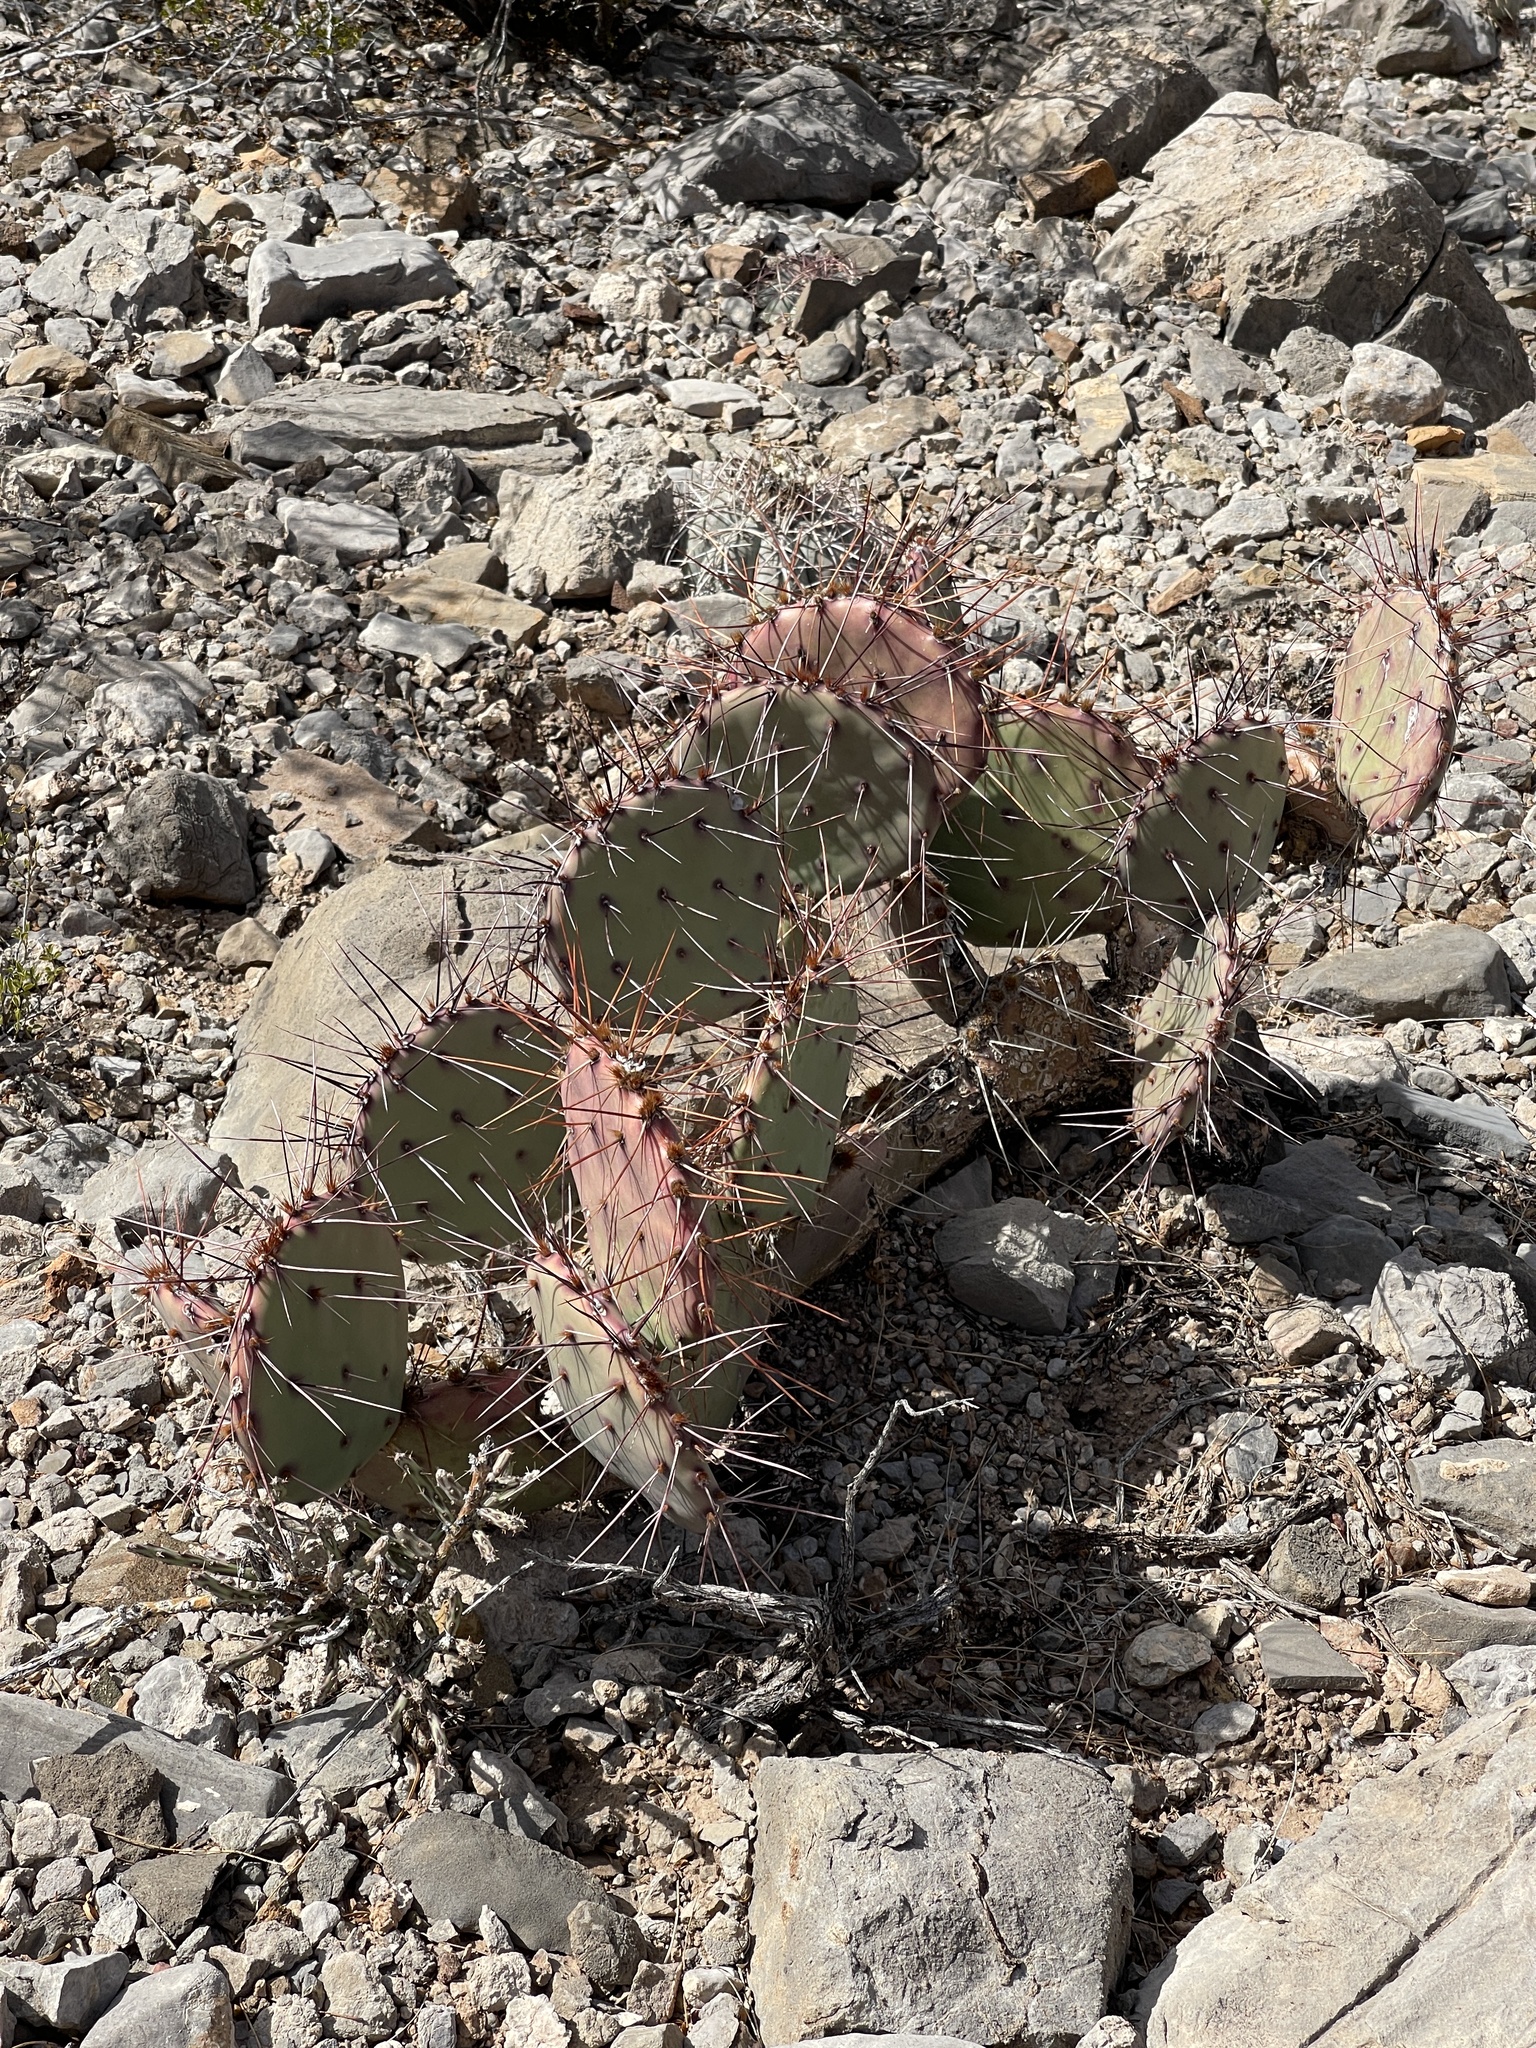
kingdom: Plantae
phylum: Tracheophyta
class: Magnoliopsida
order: Caryophyllales
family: Cactaceae
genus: Opuntia
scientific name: Opuntia phaeacantha
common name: New mexico prickly-pear
